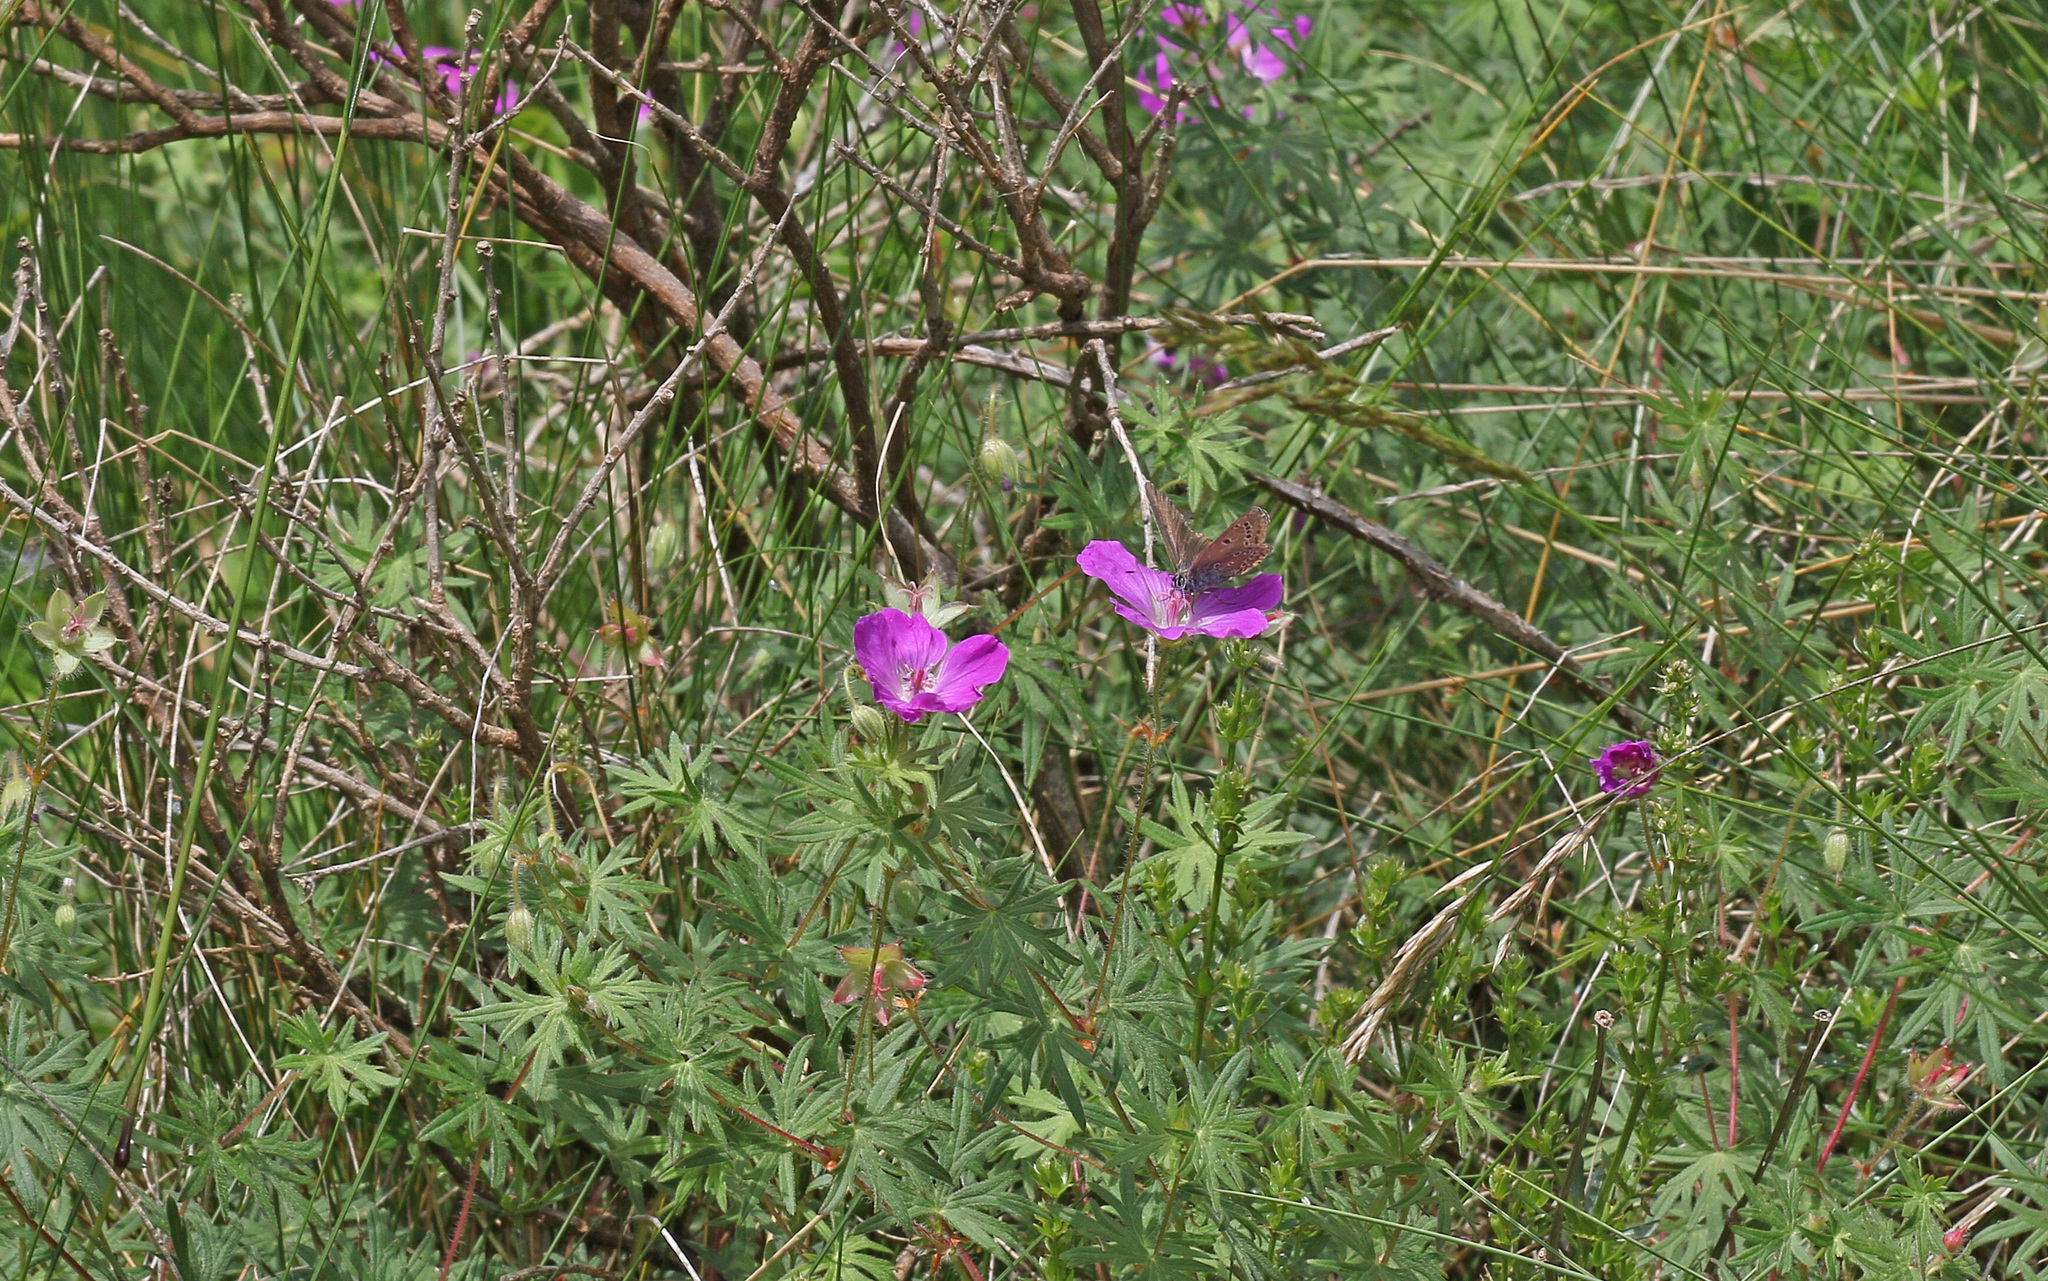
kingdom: Animalia
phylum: Arthropoda
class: Insecta
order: Lepidoptera
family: Lycaenidae
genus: Eumedonia
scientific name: Eumedonia eumedon
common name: Geranium argus
